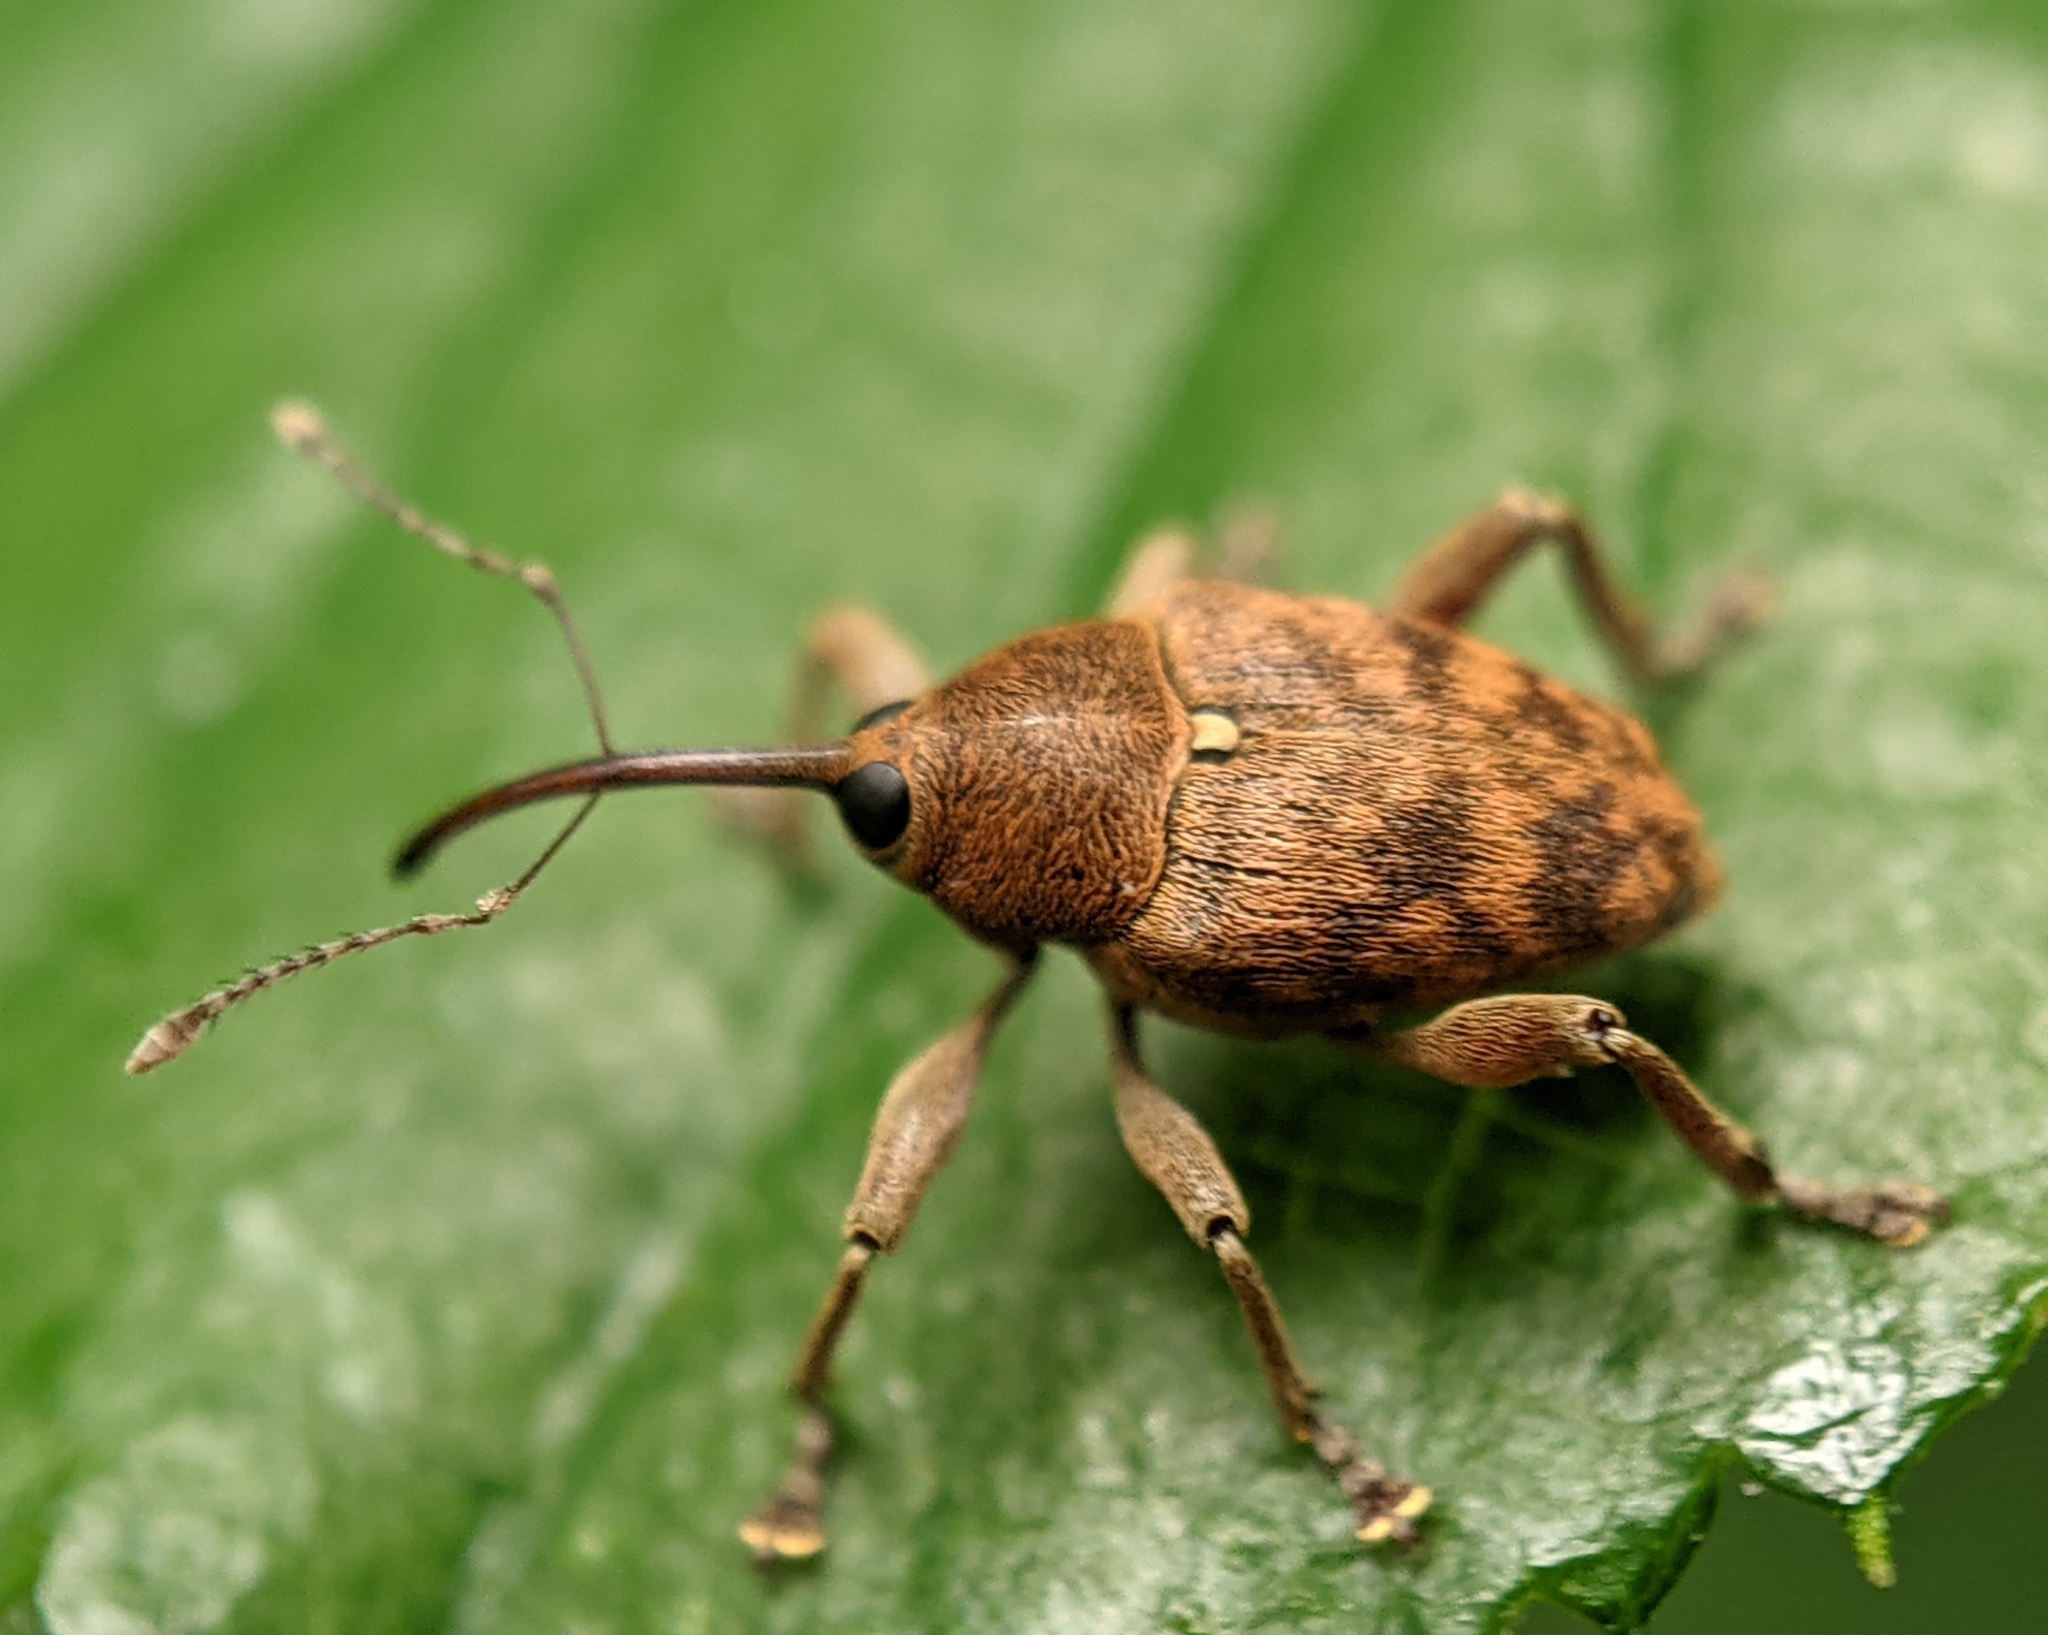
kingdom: Animalia
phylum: Arthropoda
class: Insecta
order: Coleoptera
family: Curculionidae
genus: Curculio
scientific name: Curculio glandium
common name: Acorn weevil
